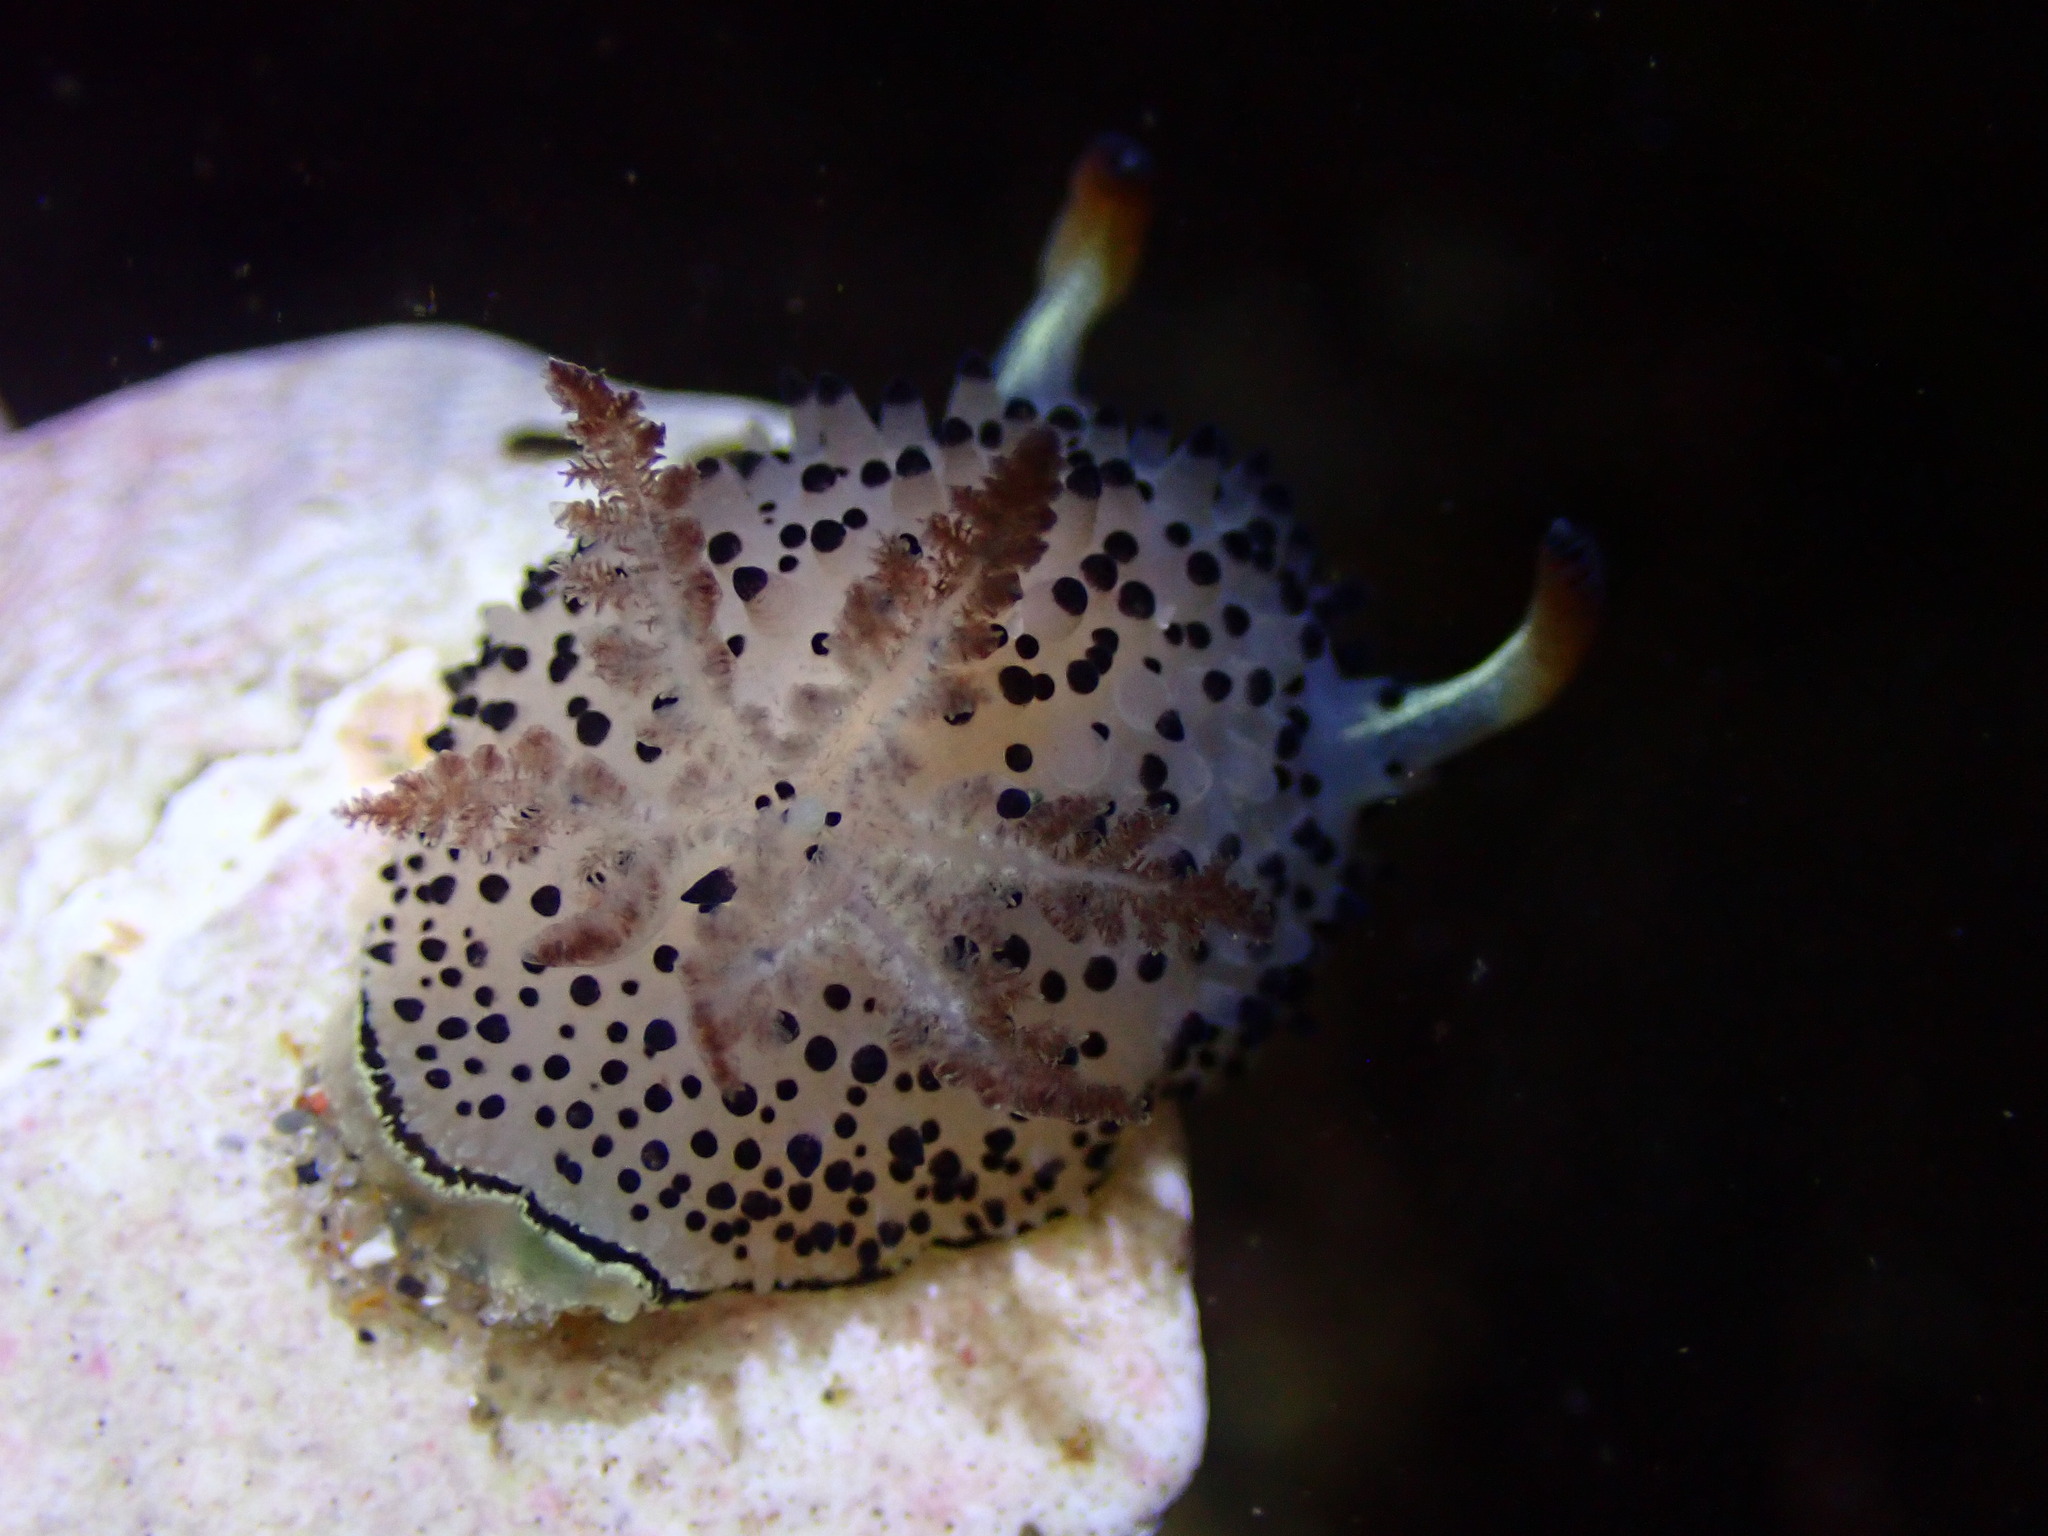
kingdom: Animalia
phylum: Mollusca
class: Gastropoda
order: Nudibranchia
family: Onchidorididae
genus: Acanthodoris
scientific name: Acanthodoris rhodoceras
